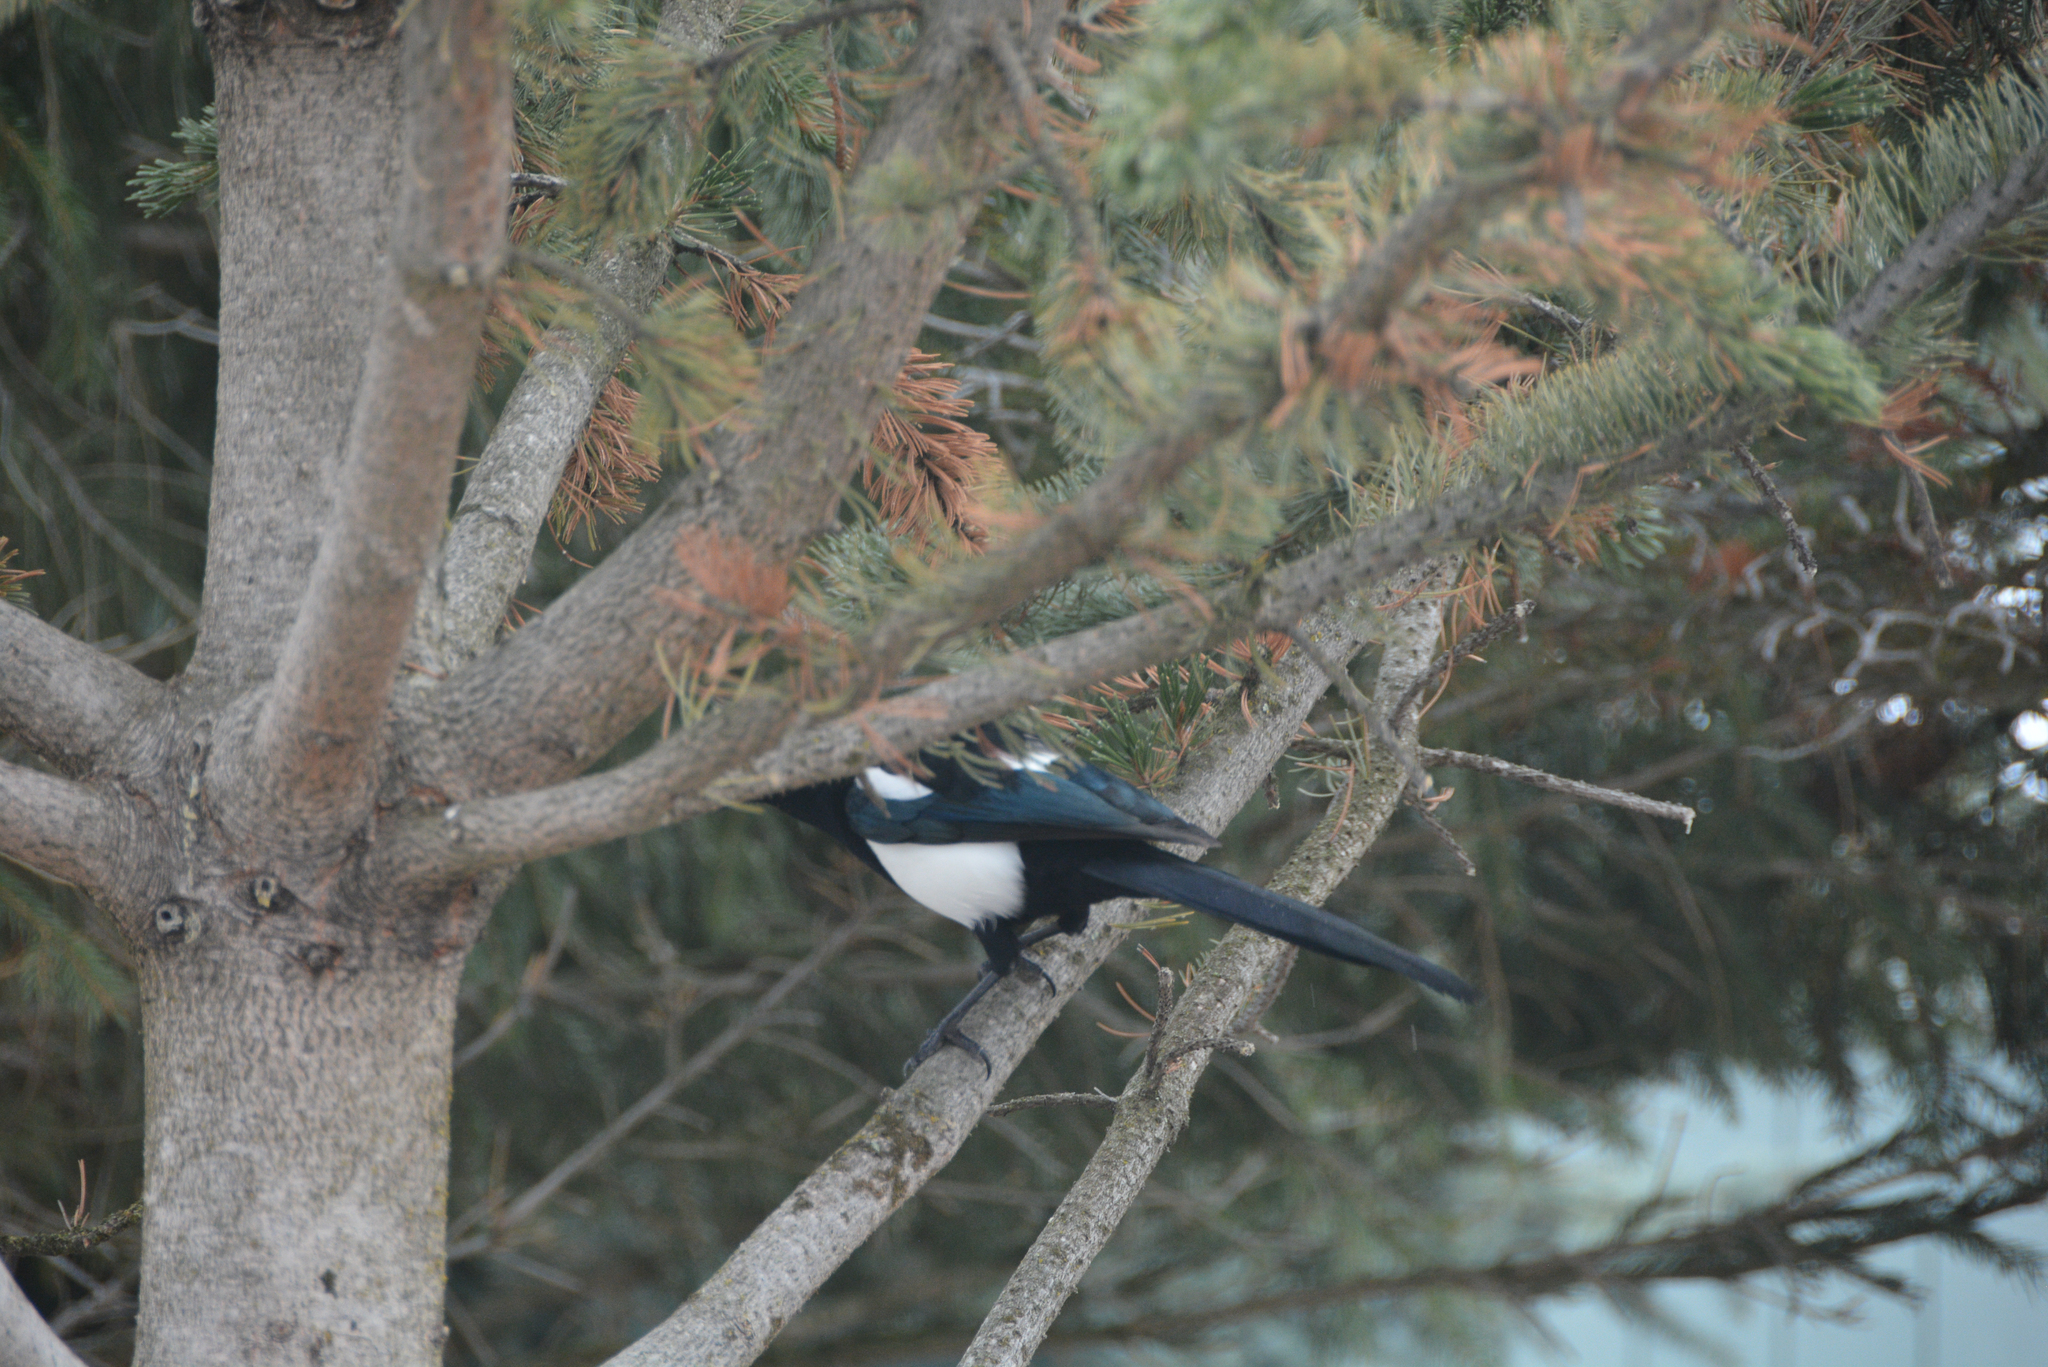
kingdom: Animalia
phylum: Chordata
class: Aves
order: Passeriformes
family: Corvidae
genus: Pica
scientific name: Pica hudsonia
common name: Black-billed magpie
